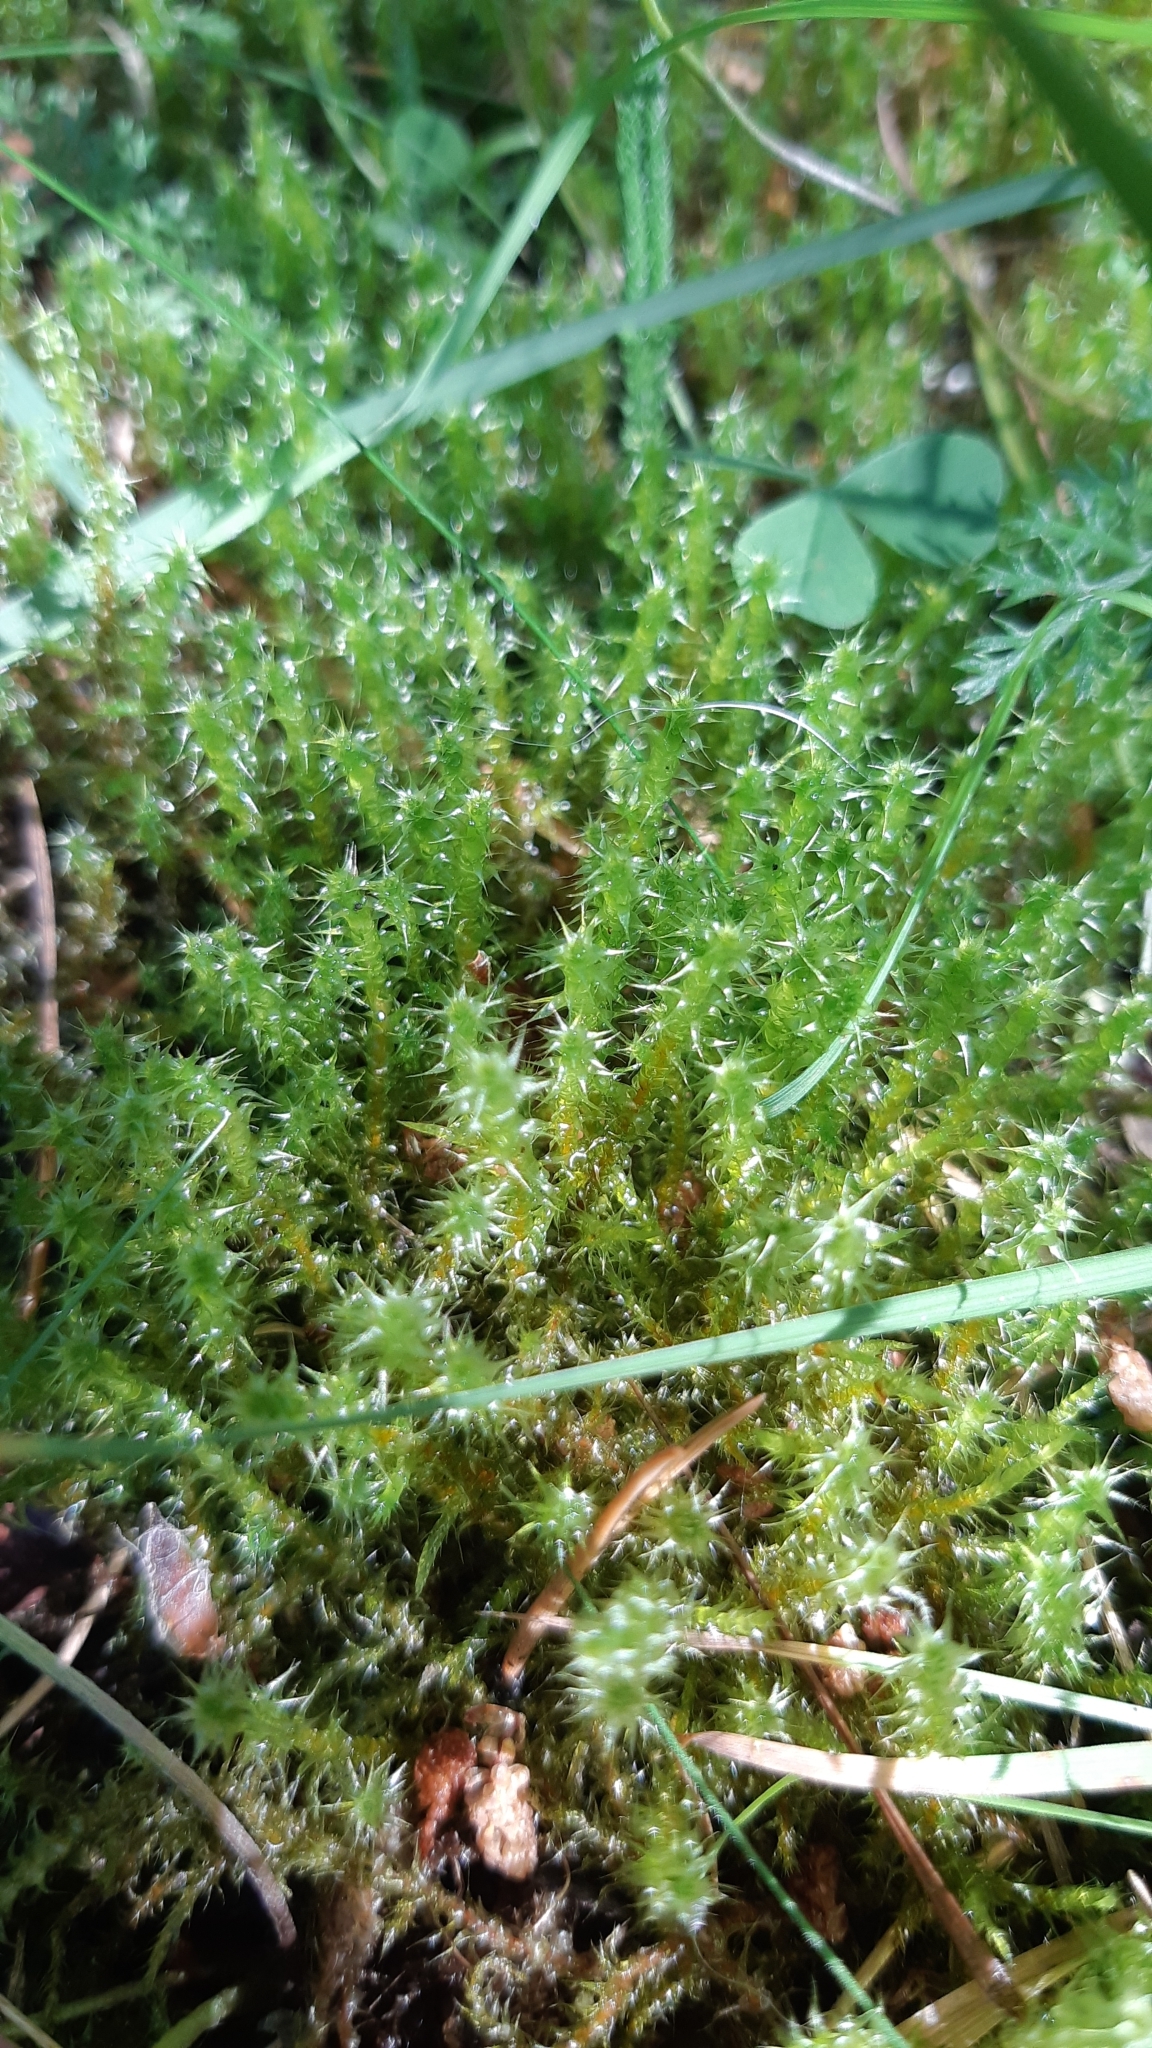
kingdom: Plantae
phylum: Bryophyta
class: Bryopsida
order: Hypnales
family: Hylocomiaceae
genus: Rhytidiadelphus
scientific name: Rhytidiadelphus squarrosus
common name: Springy turf-moss
